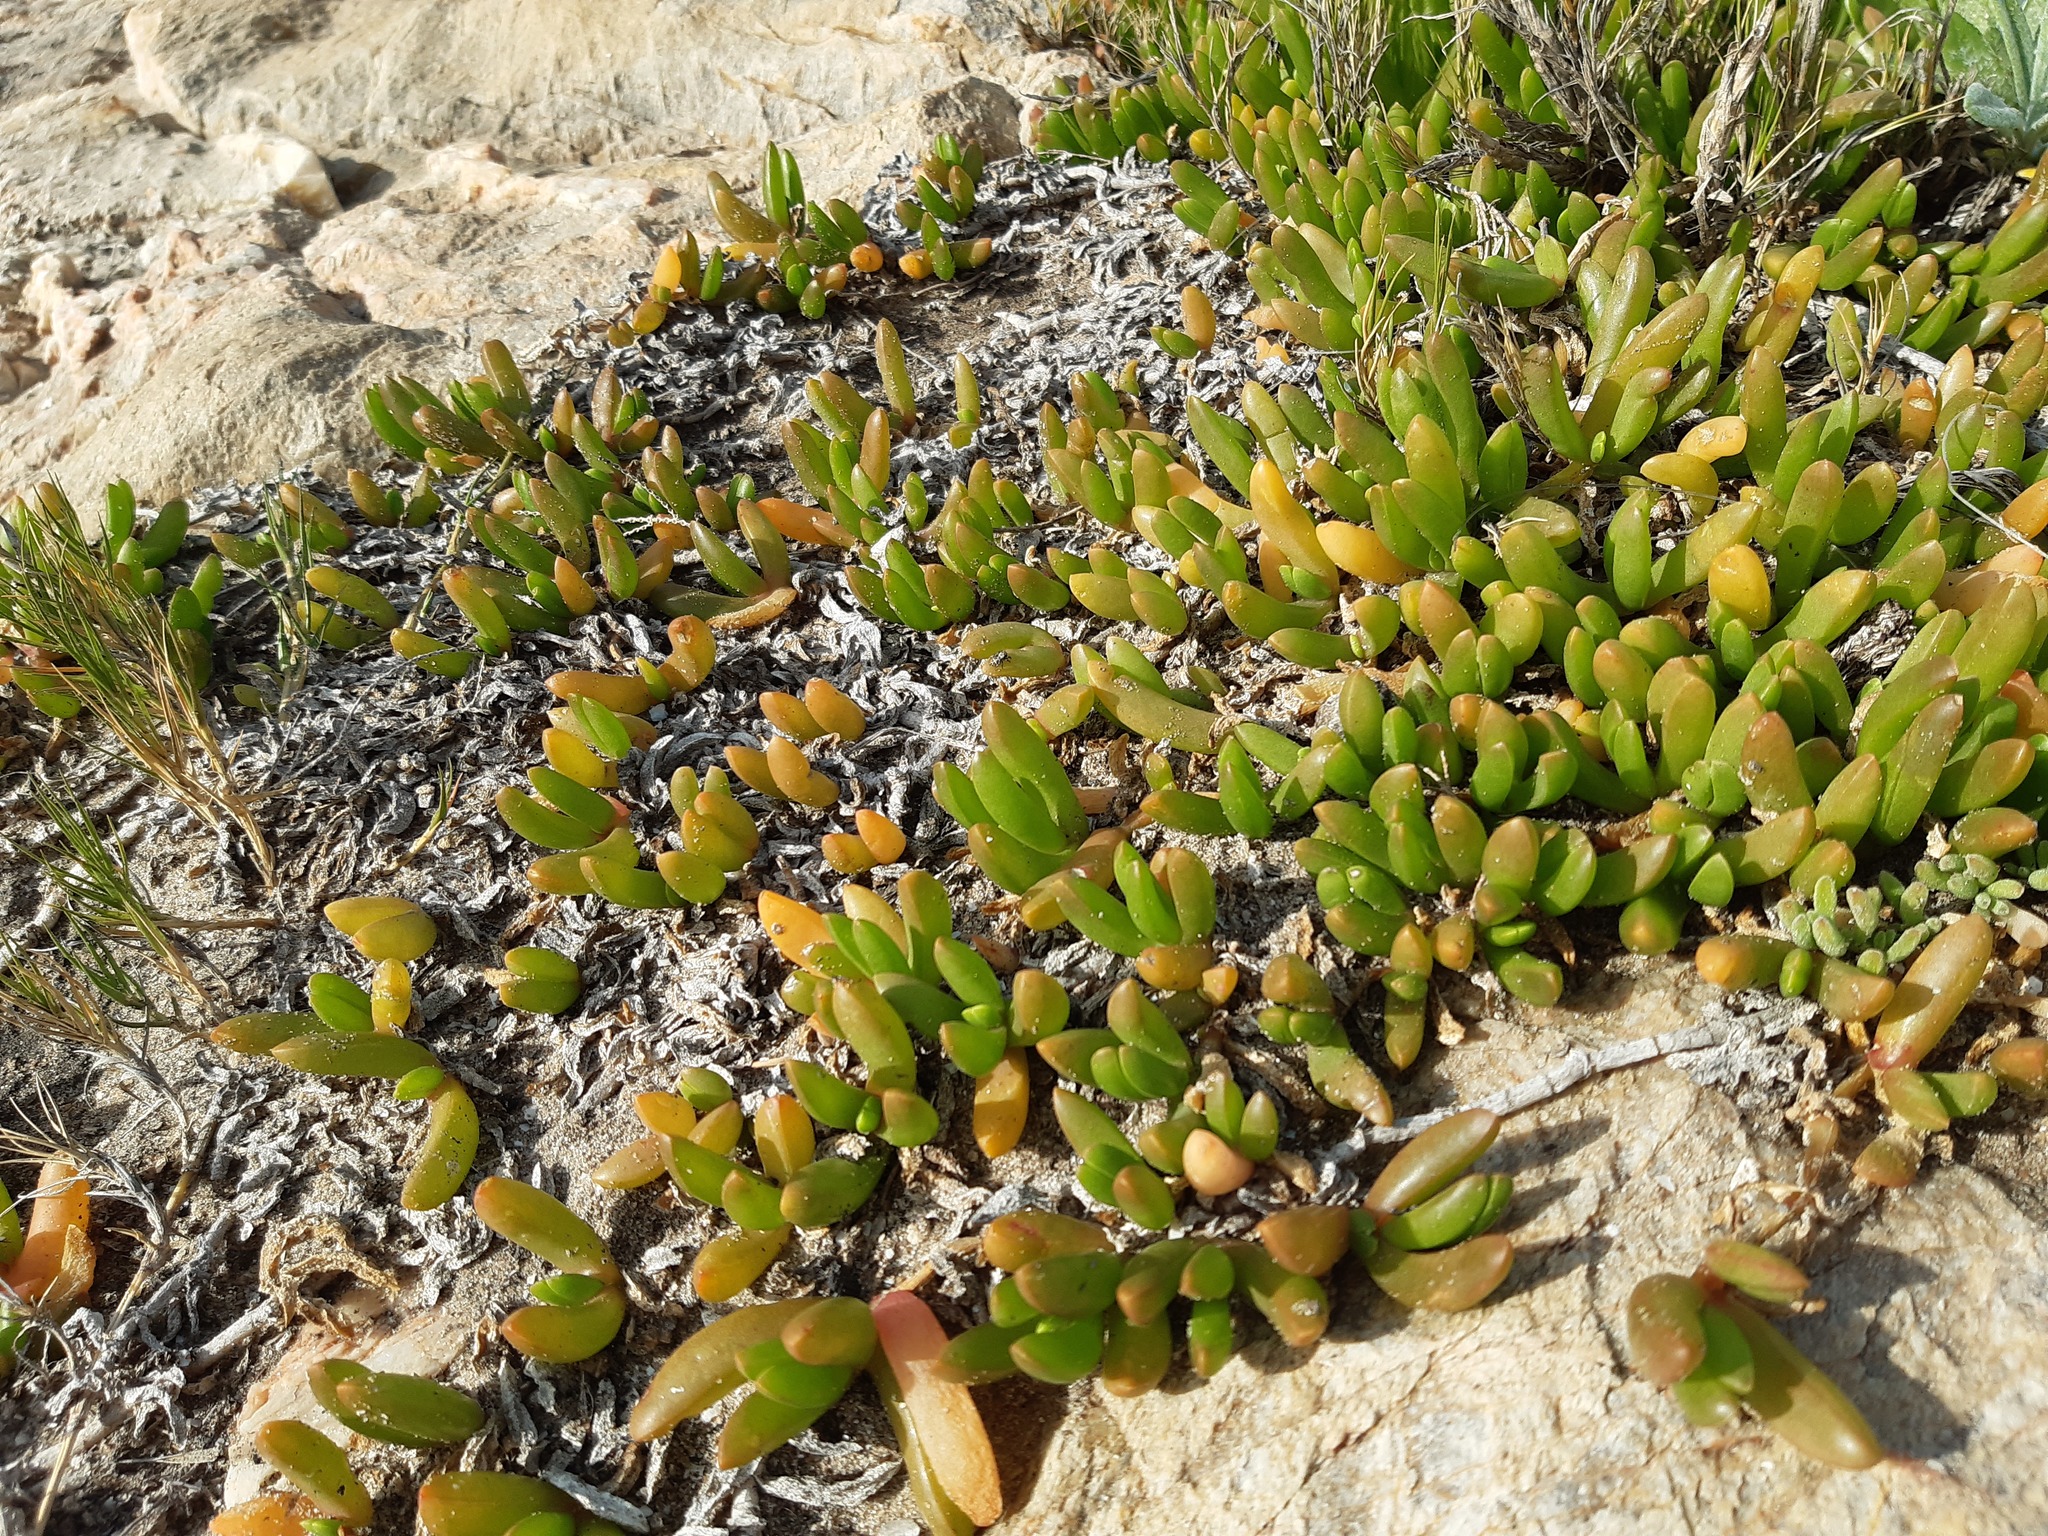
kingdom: Plantae
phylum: Tracheophyta
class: Magnoliopsida
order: Caryophyllales
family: Aizoaceae
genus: Disphyma
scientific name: Disphyma crassifolium
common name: Purple dewplant
